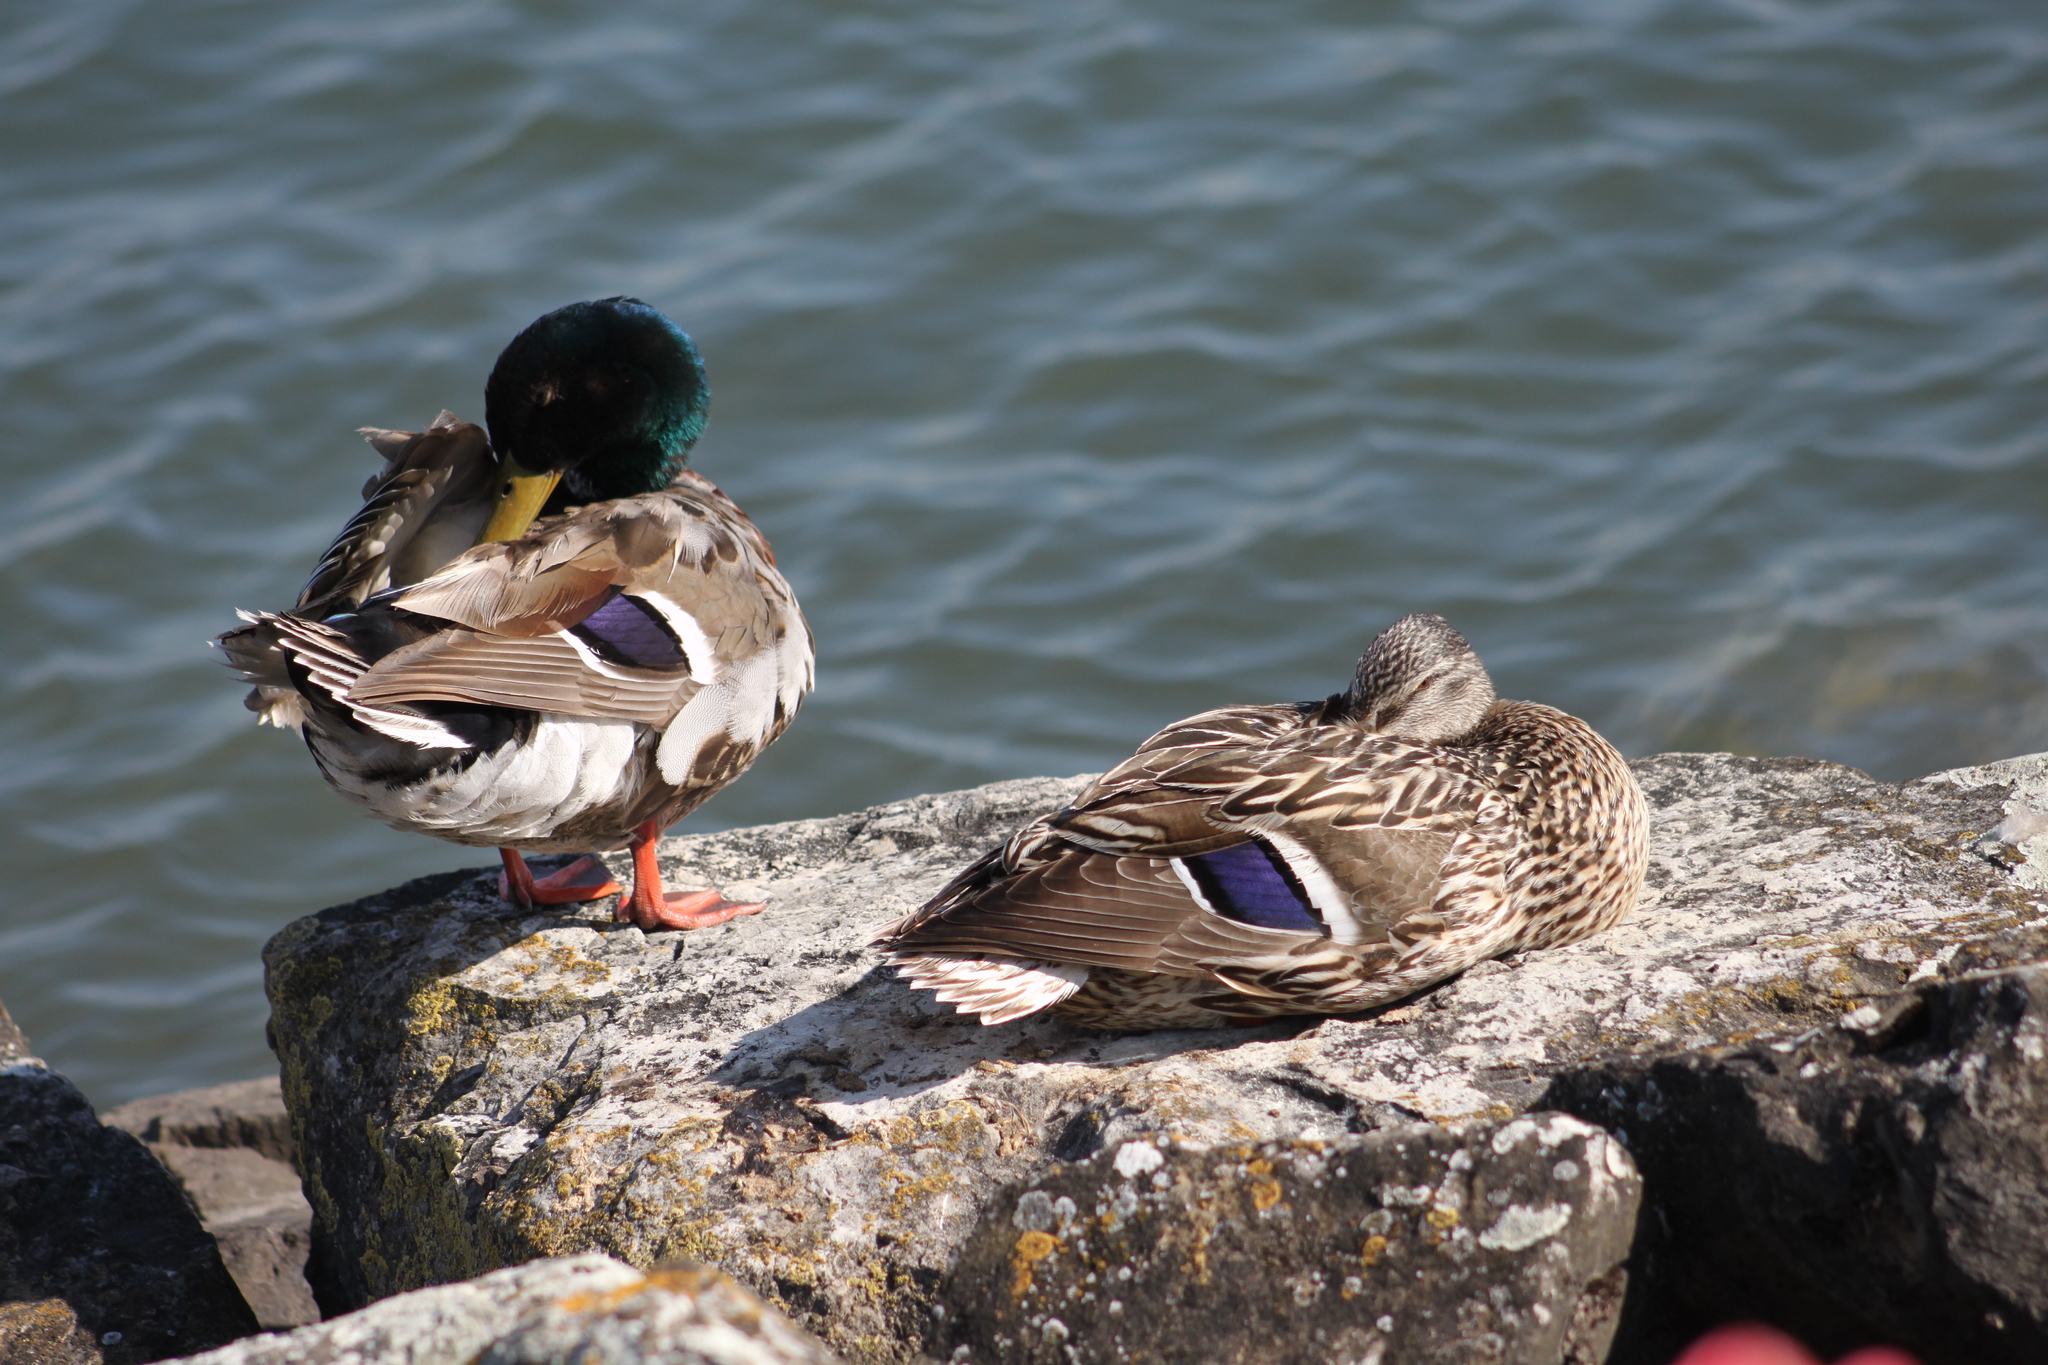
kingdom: Animalia
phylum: Chordata
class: Aves
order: Anseriformes
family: Anatidae
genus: Anas
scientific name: Anas platyrhynchos
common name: Mallard
